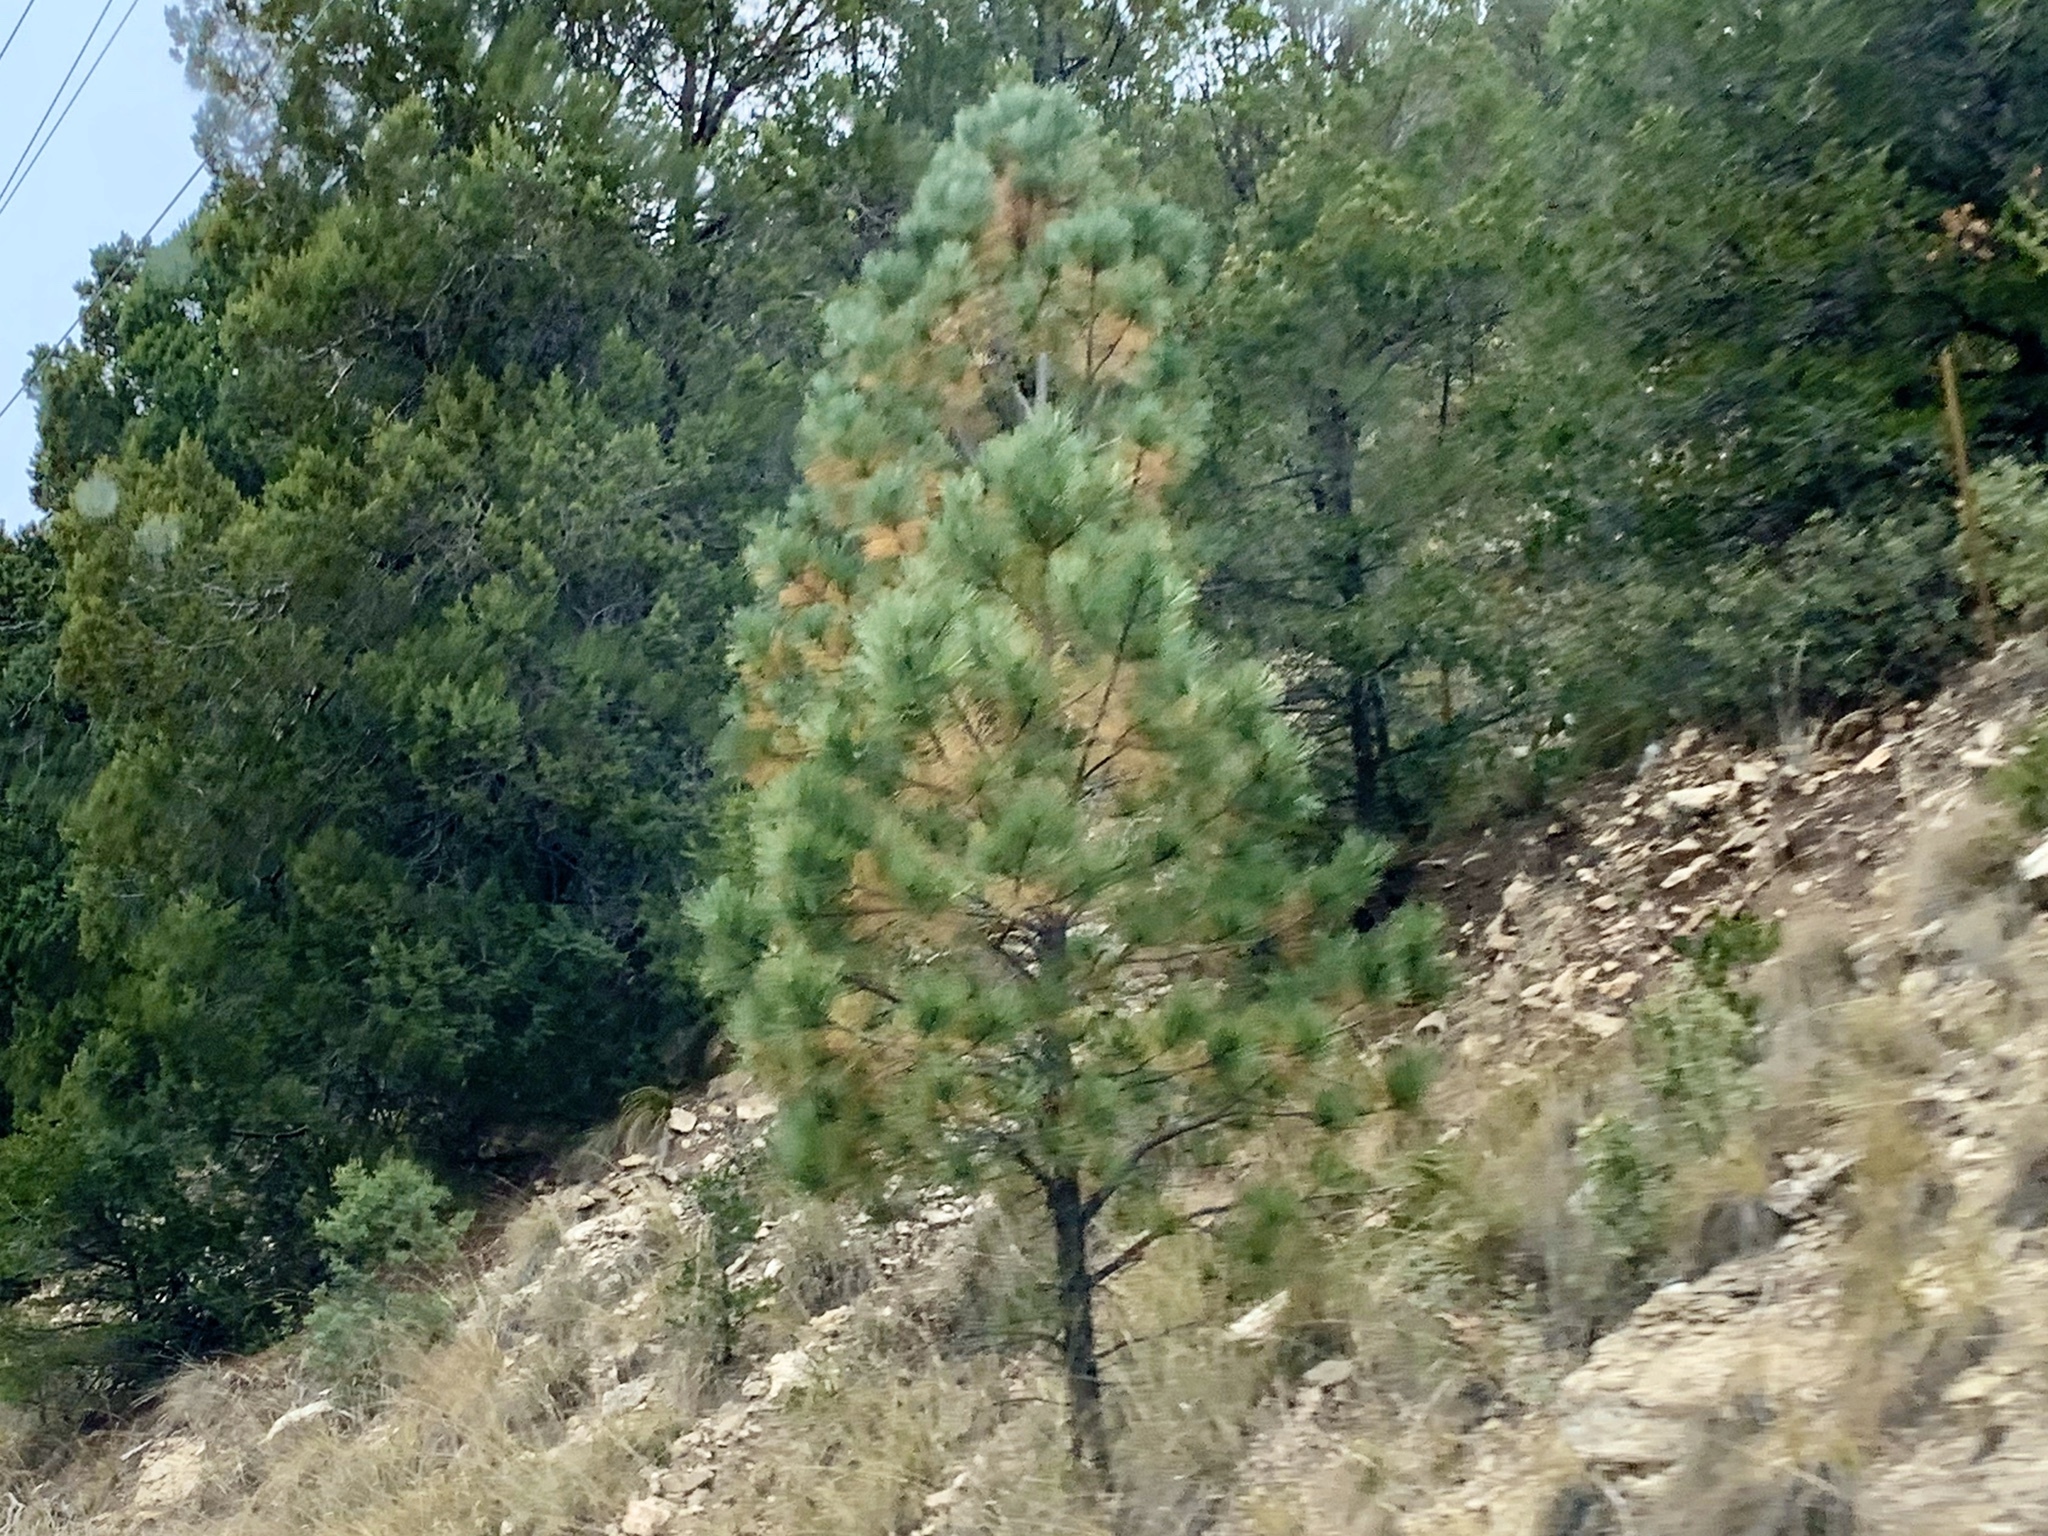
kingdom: Plantae
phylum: Tracheophyta
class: Pinopsida
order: Pinales
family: Pinaceae
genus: Pinus
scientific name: Pinus ponderosa
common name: Western yellow-pine
